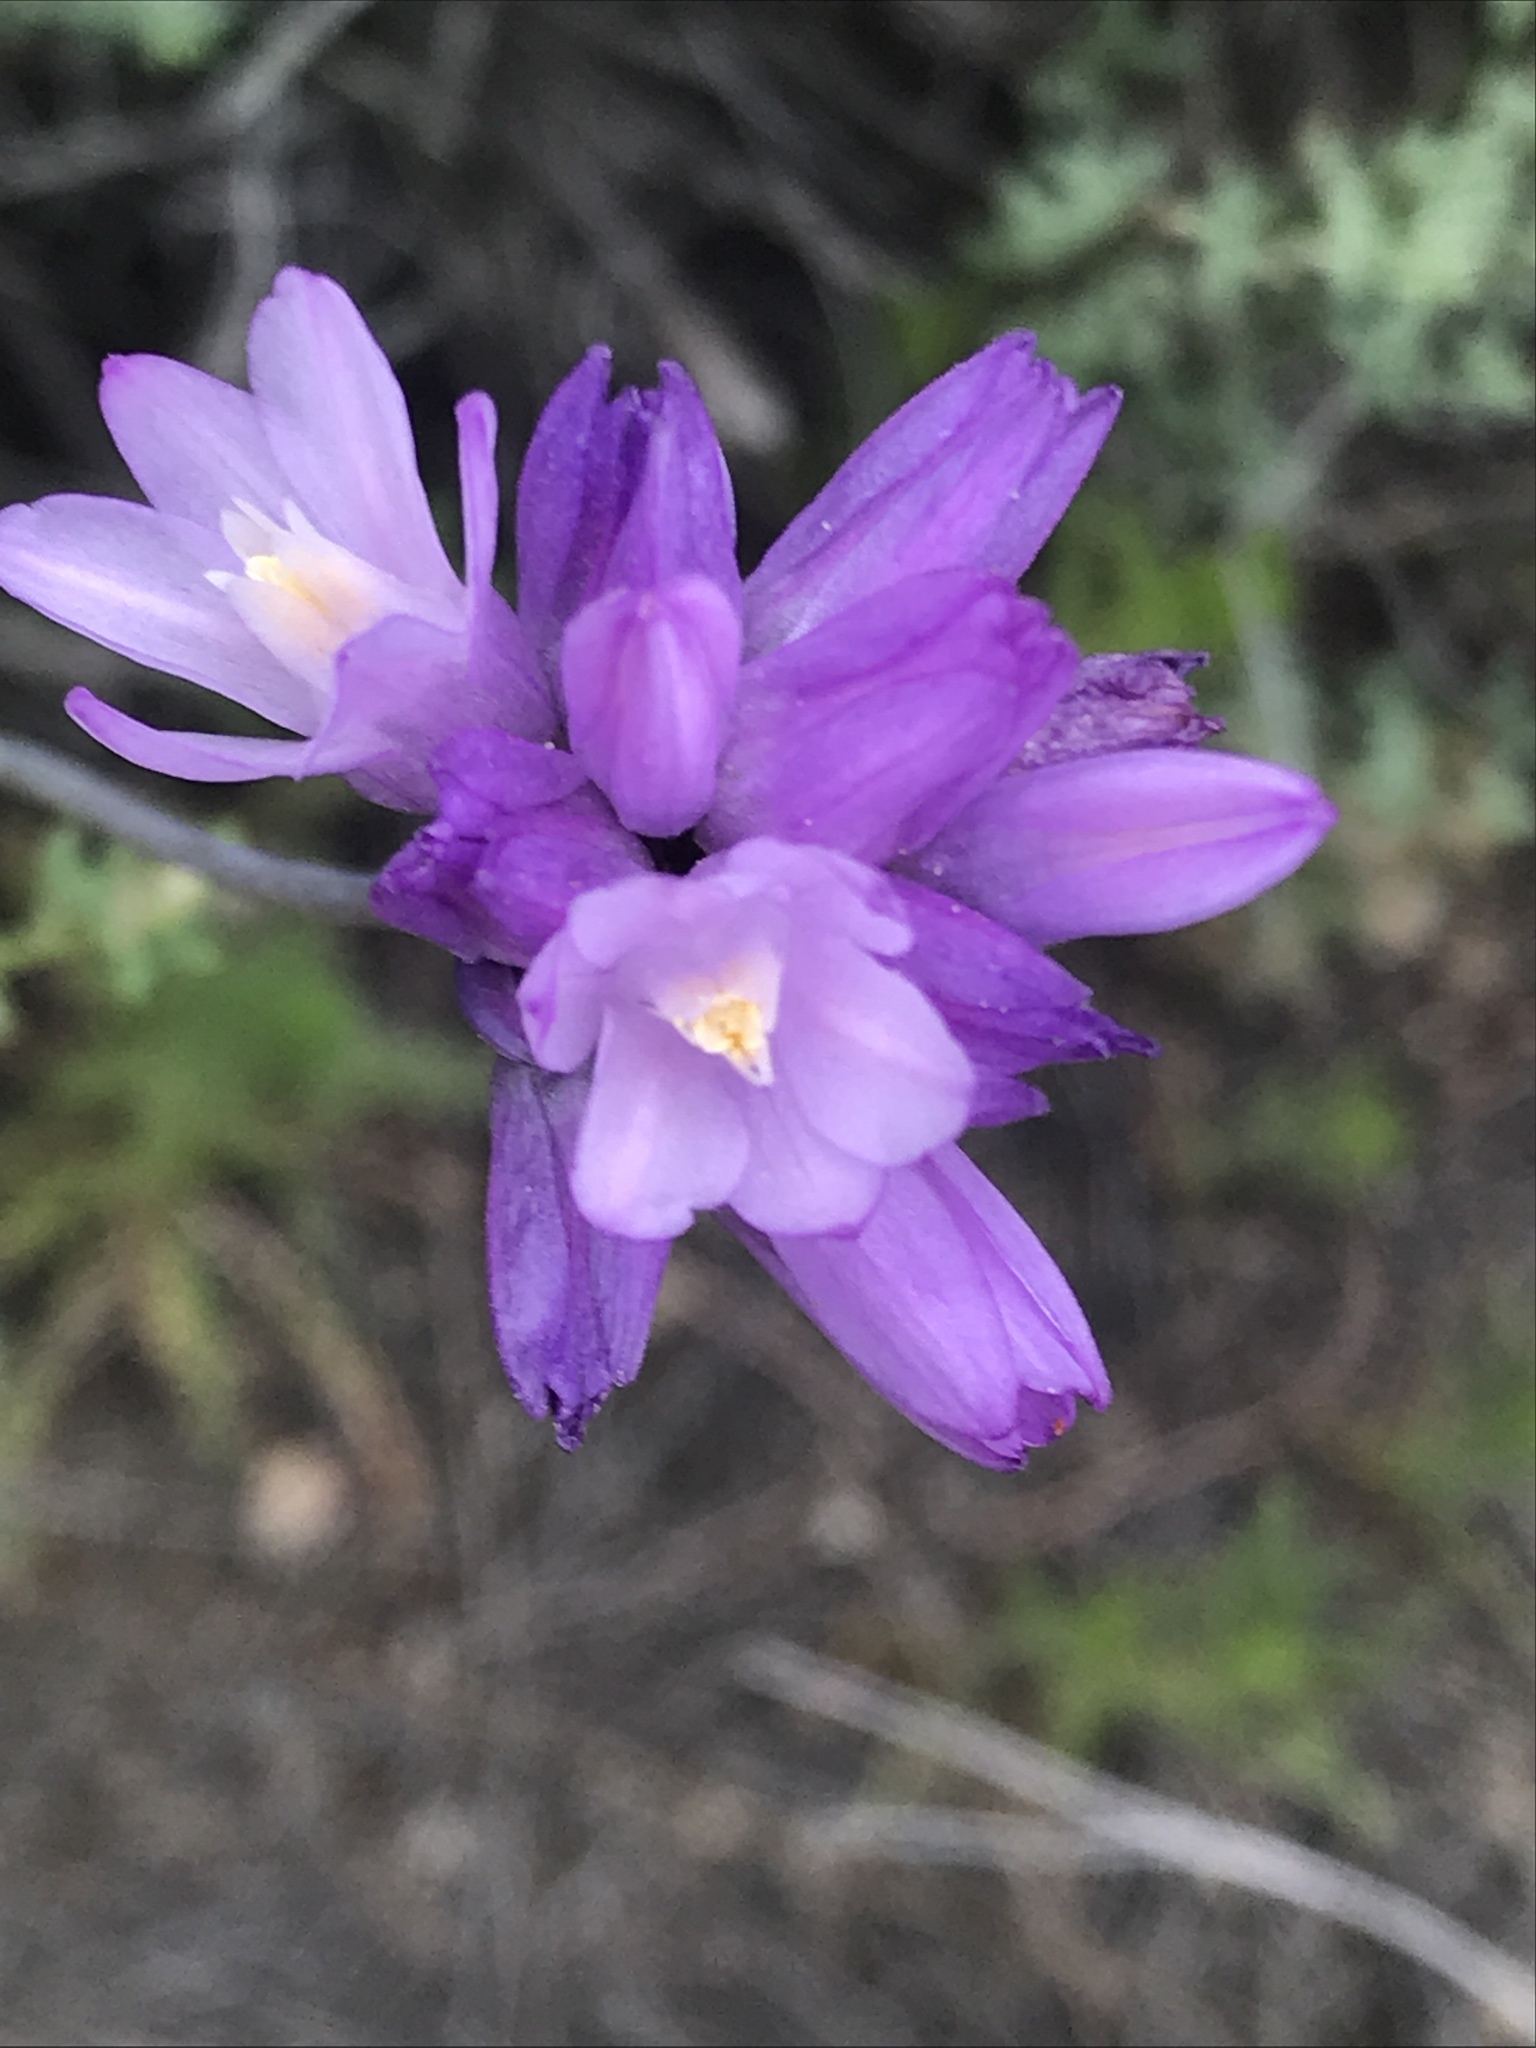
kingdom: Plantae
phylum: Tracheophyta
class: Liliopsida
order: Asparagales
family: Asparagaceae
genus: Dipterostemon
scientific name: Dipterostemon capitatus
